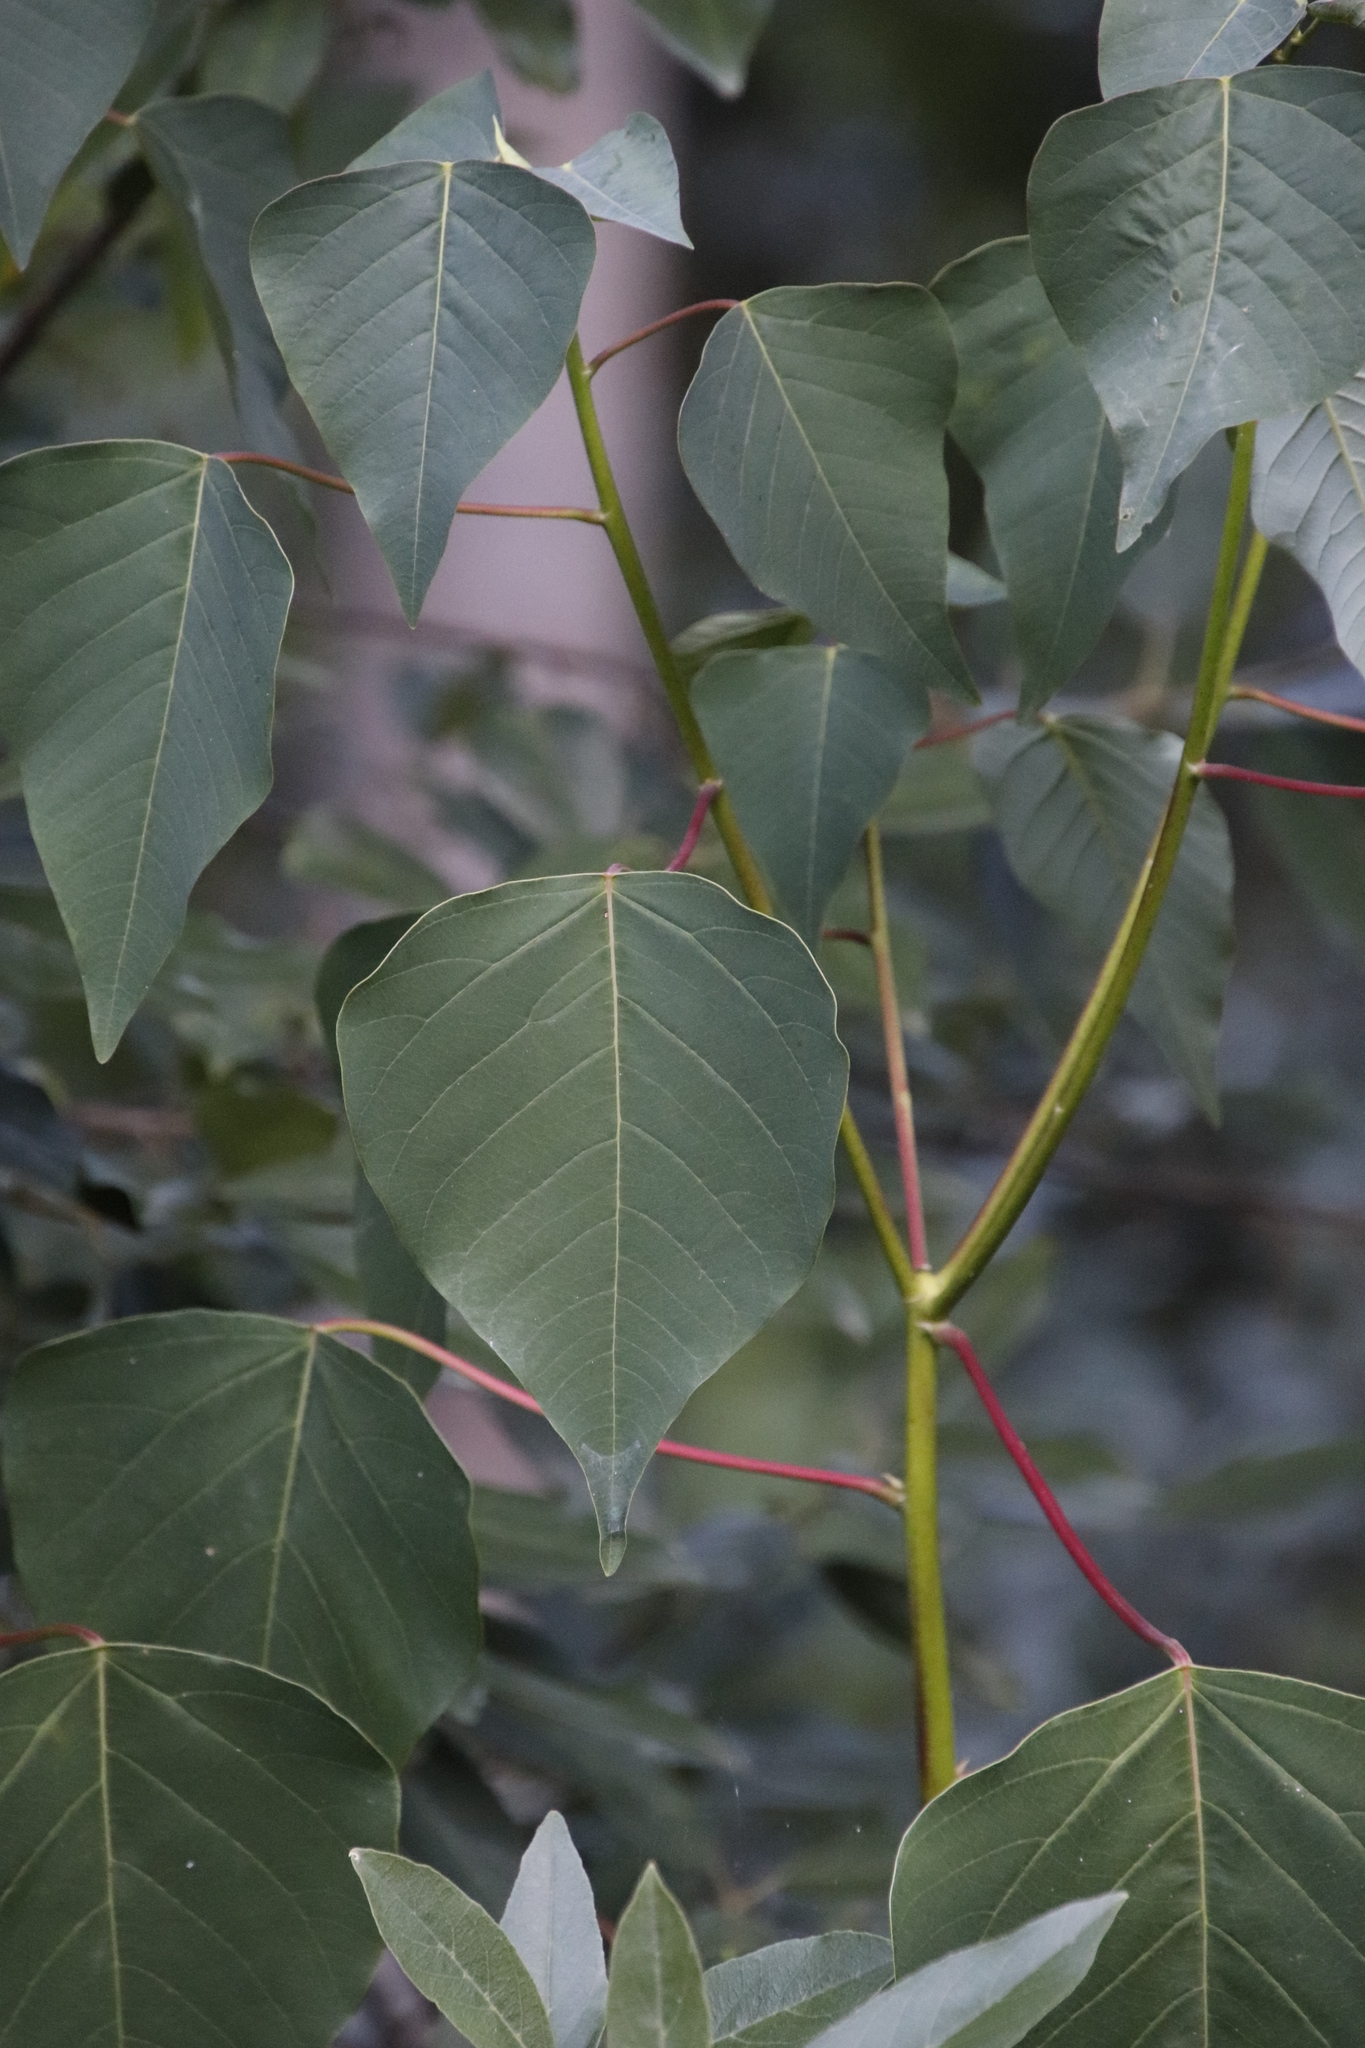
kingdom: Plantae
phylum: Tracheophyta
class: Magnoliopsida
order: Malpighiales
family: Euphorbiaceae
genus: Homalanthus
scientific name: Homalanthus populifolius
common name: Queensland poplar
